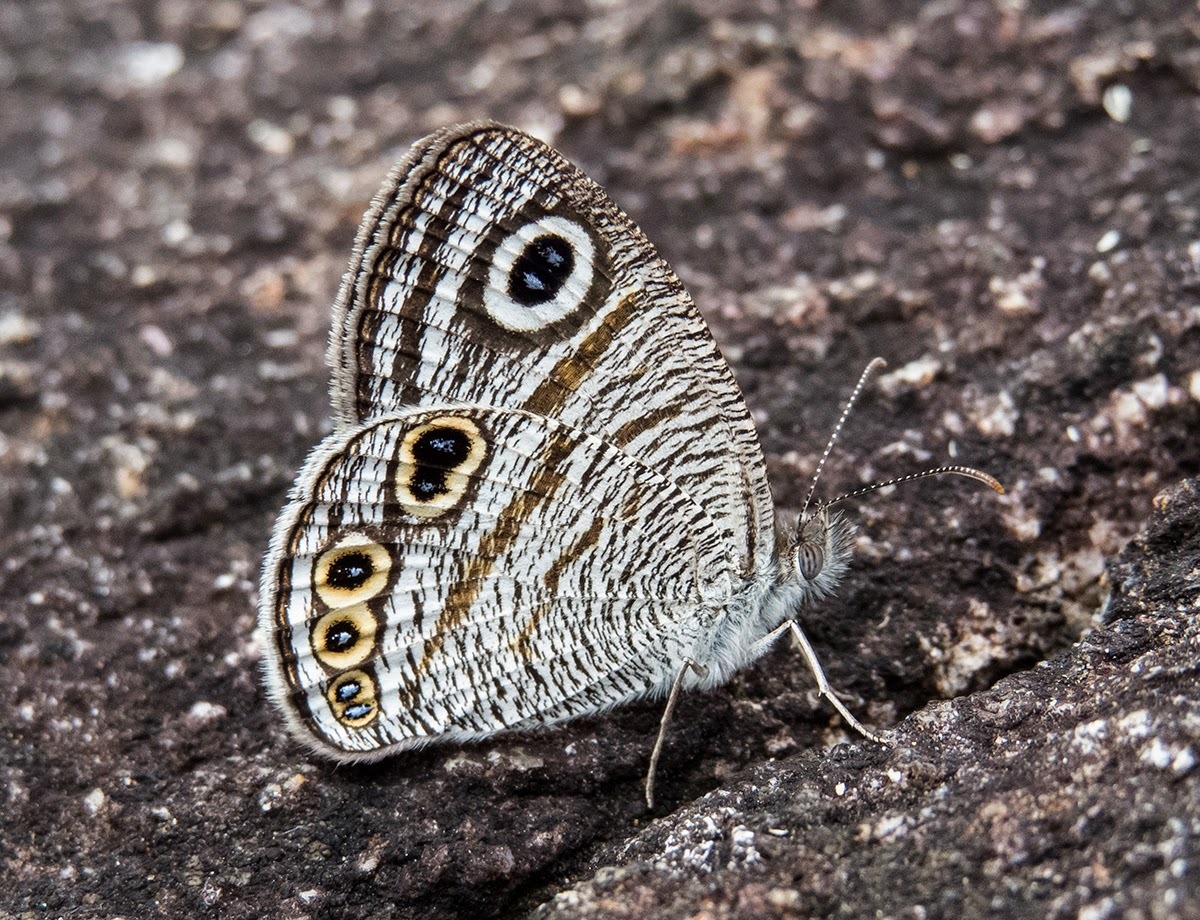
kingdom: Animalia
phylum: Arthropoda
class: Insecta
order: Lepidoptera
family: Nymphalidae
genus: Ypthima
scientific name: Ypthima avanta
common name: Jewel five-ring
